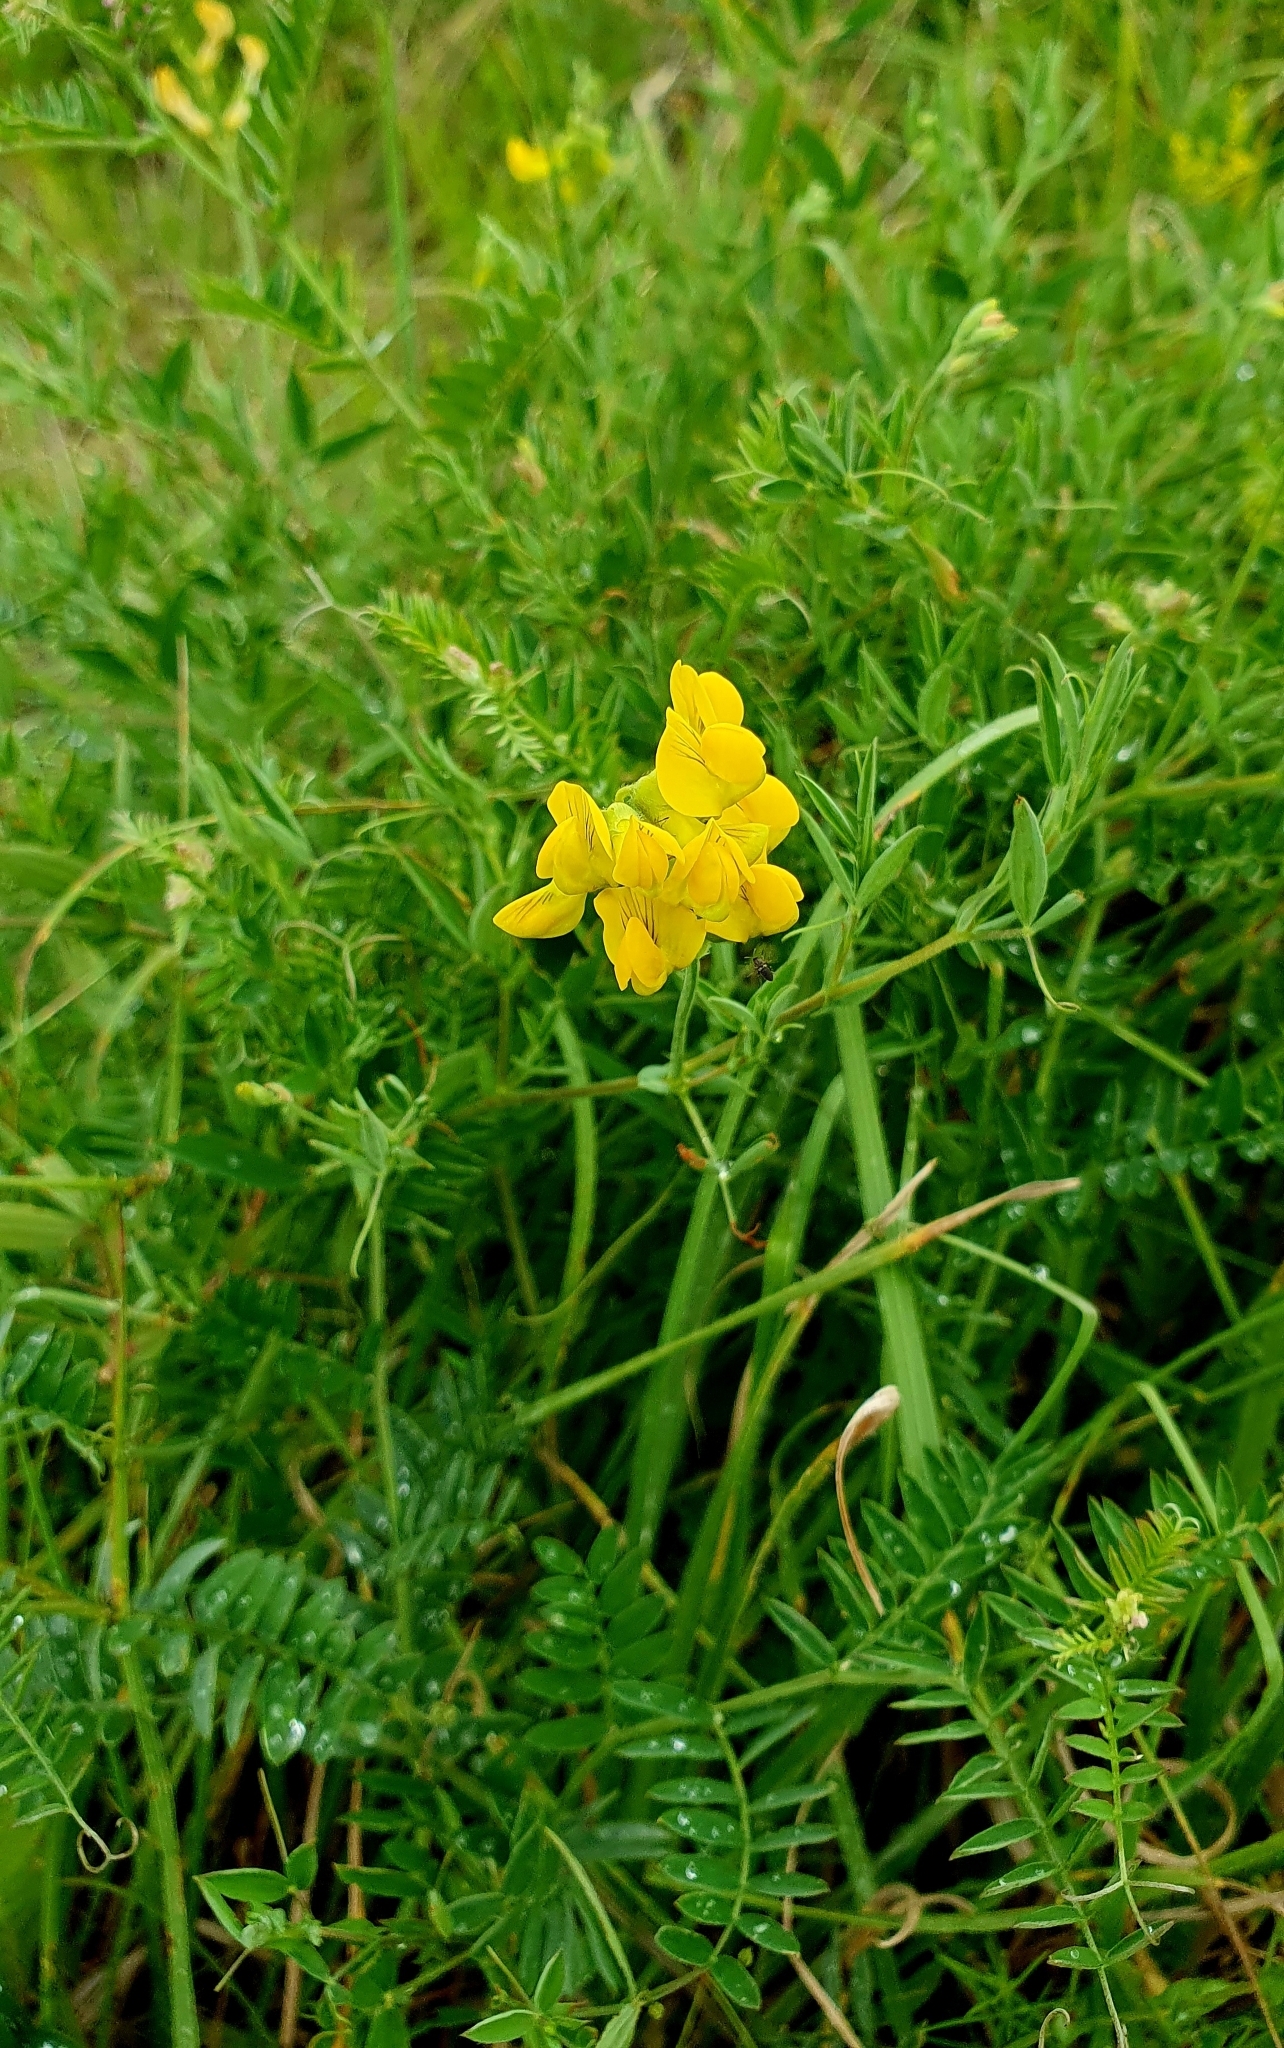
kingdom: Plantae
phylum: Tracheophyta
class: Magnoliopsida
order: Fabales
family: Fabaceae
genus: Lathyrus
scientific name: Lathyrus pratensis
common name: Meadow vetchling
